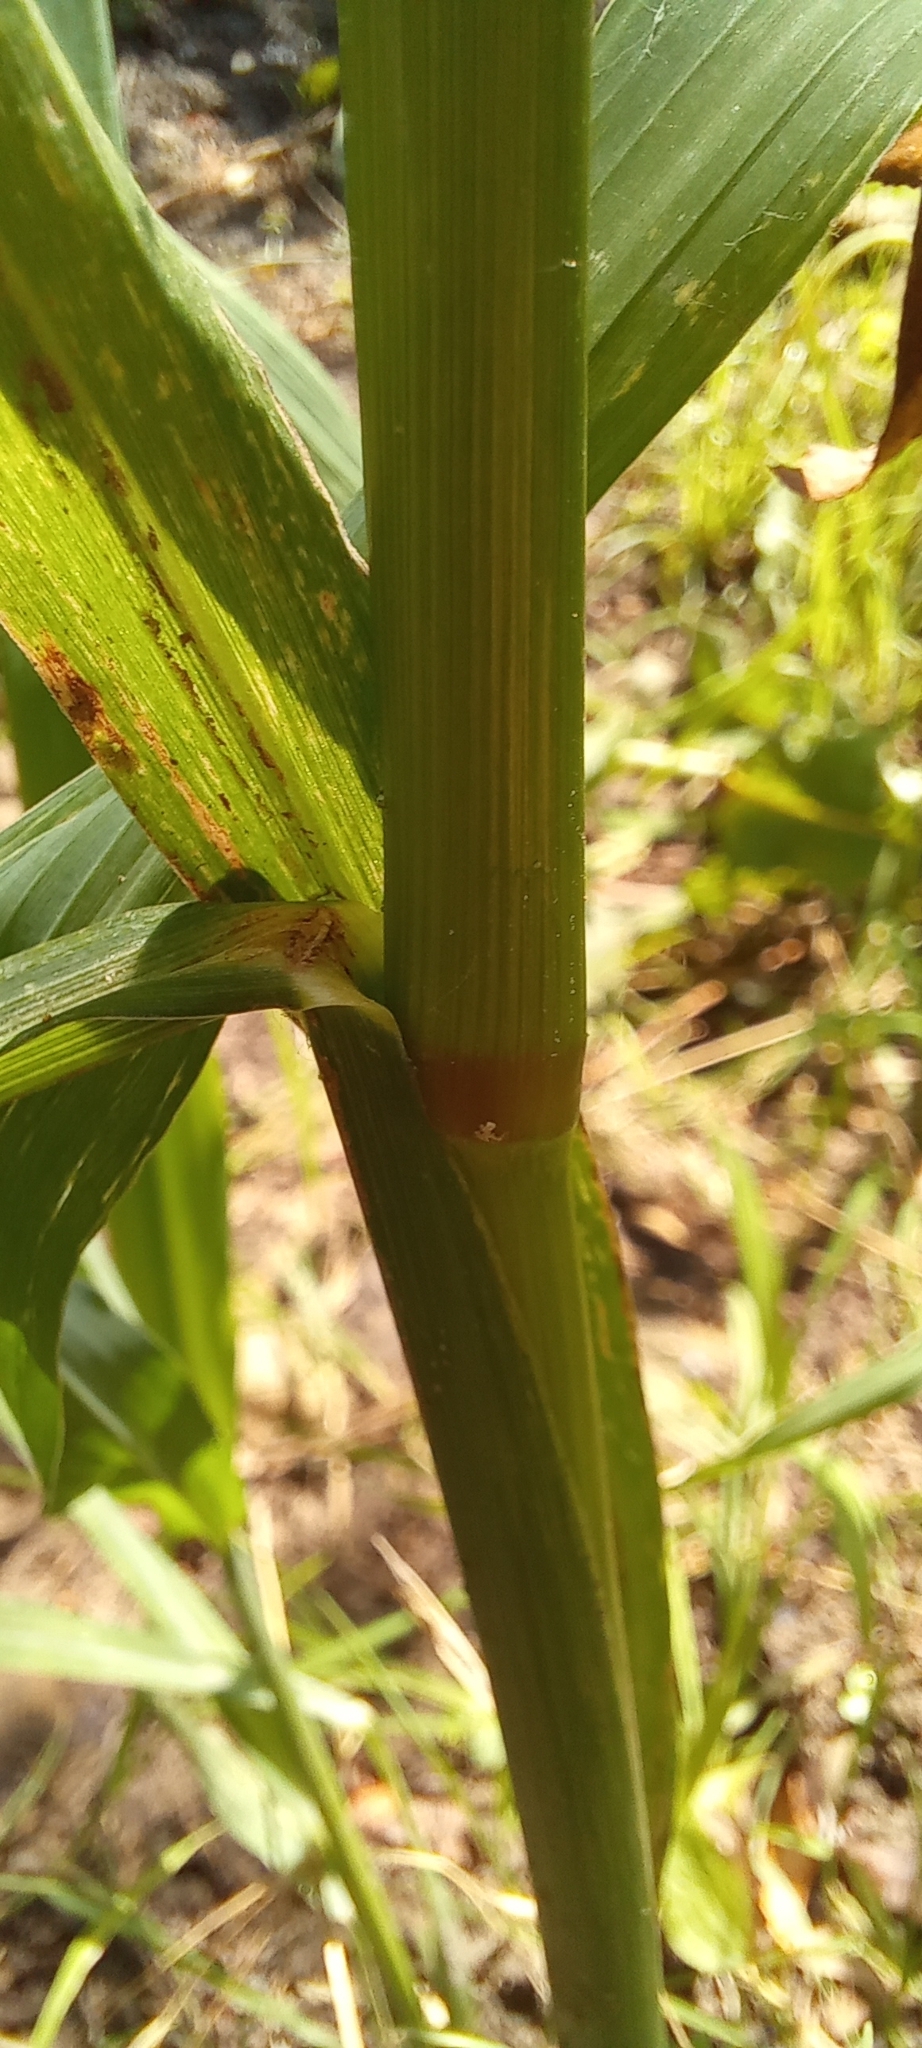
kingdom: Plantae
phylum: Tracheophyta
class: Liliopsida
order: Poales
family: Poaceae
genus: Echinochloa
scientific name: Echinochloa crus-galli
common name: Cockspur
